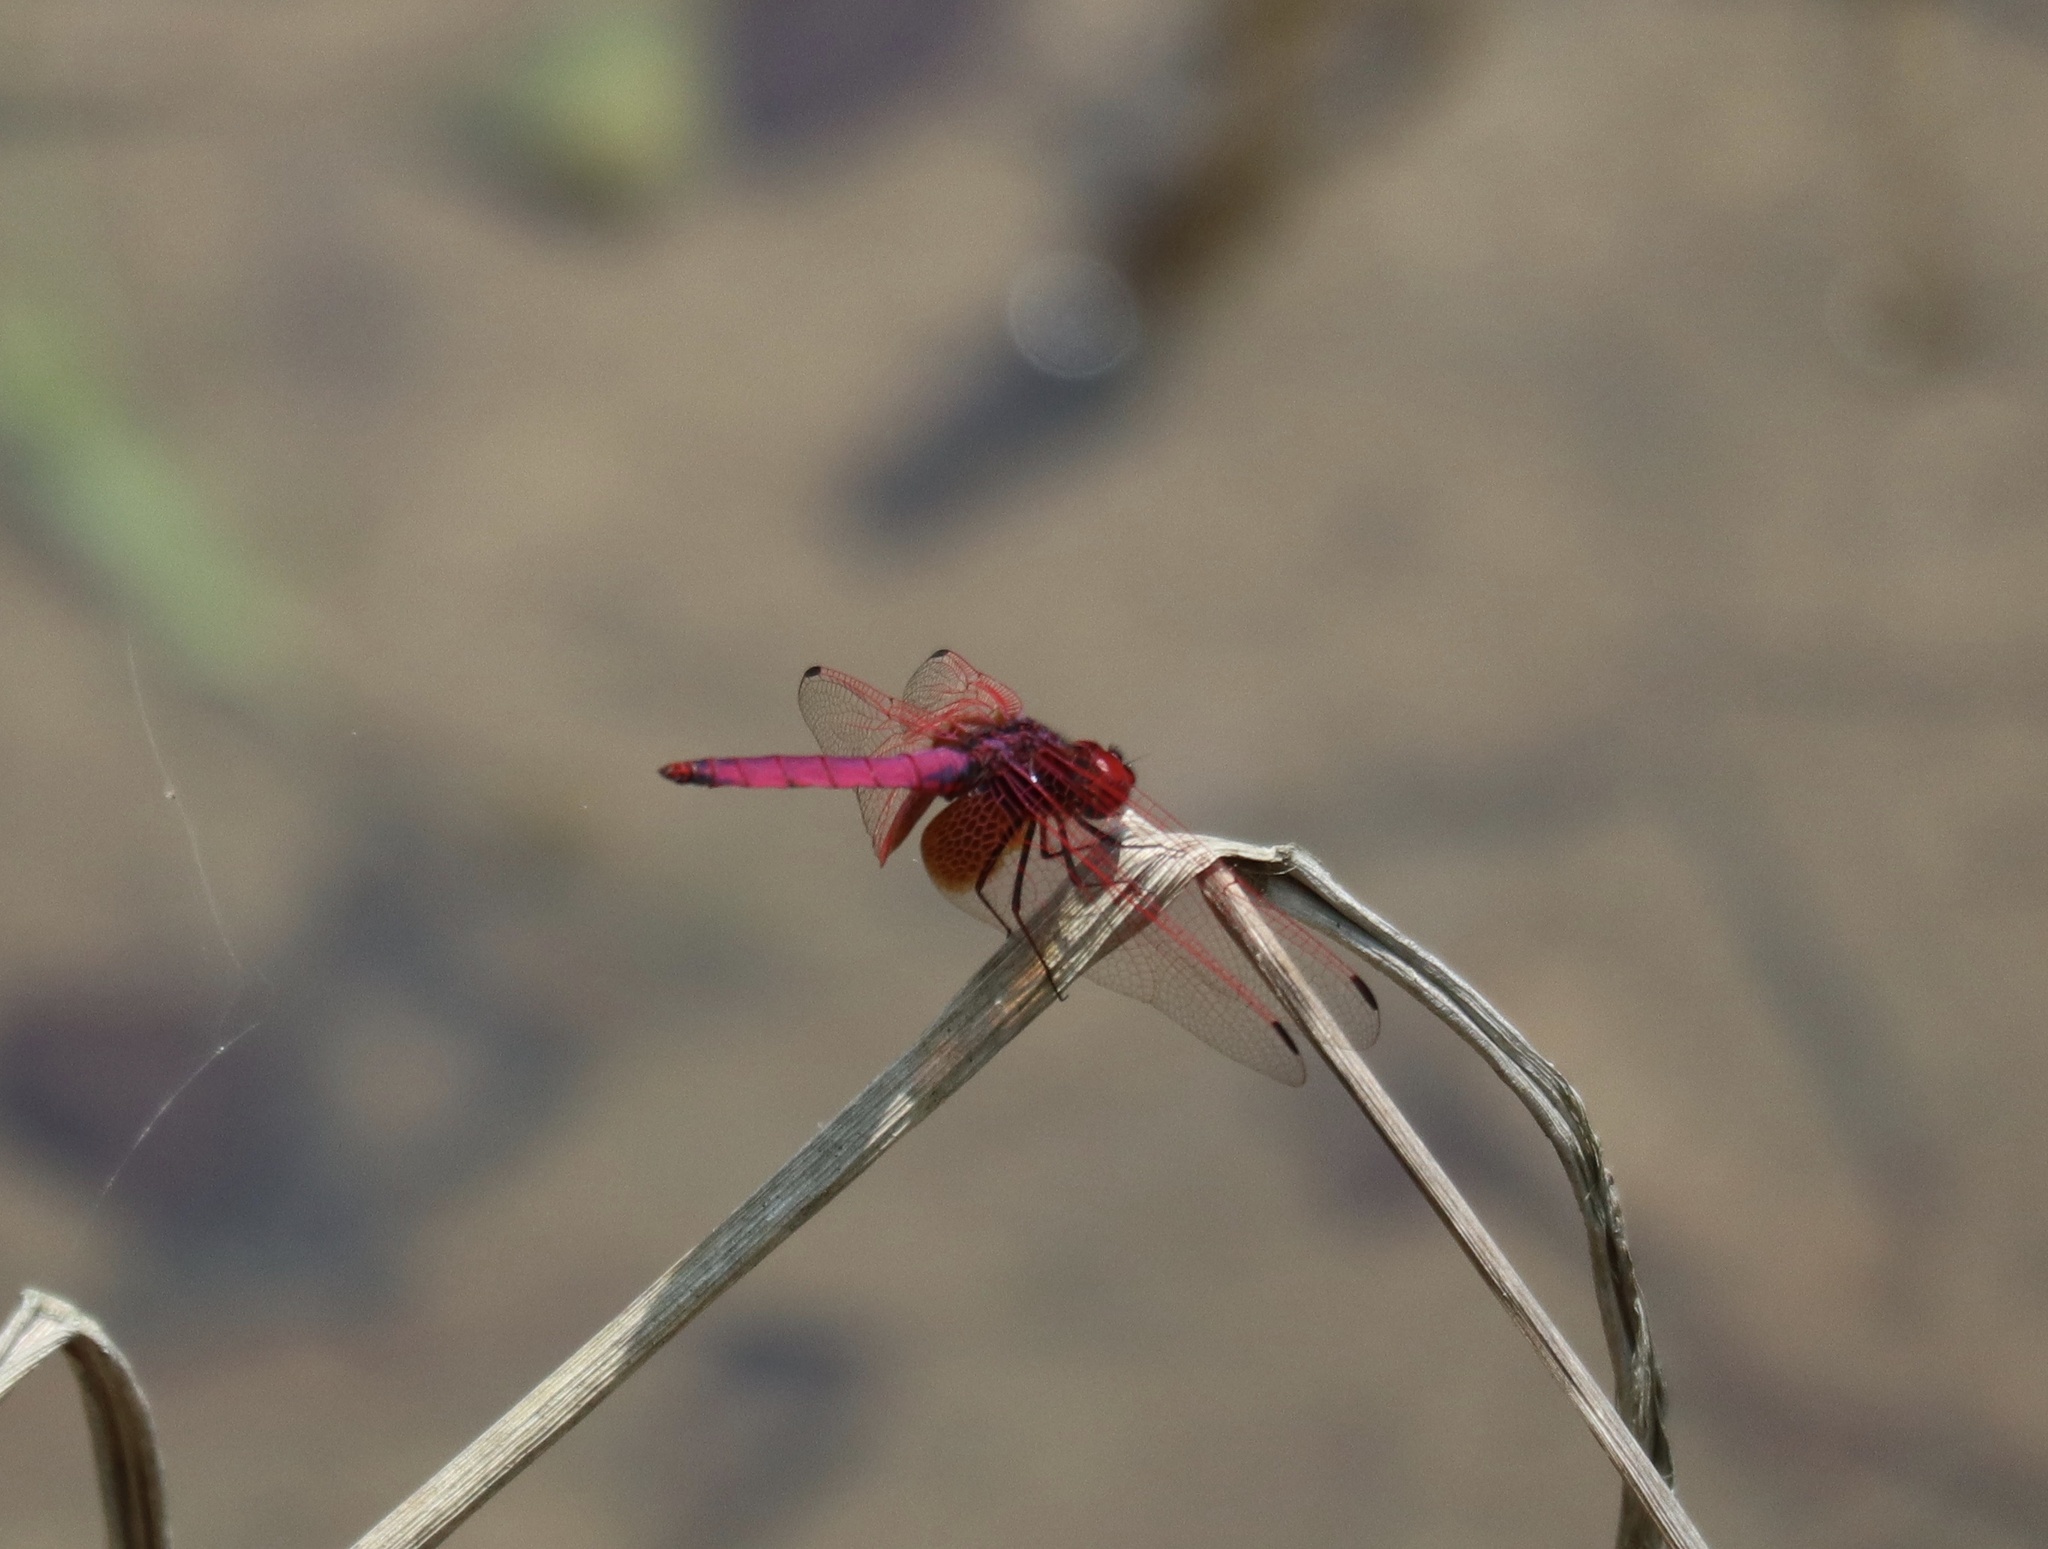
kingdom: Animalia
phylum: Arthropoda
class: Insecta
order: Odonata
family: Libellulidae
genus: Trithemis
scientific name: Trithemis aurora
